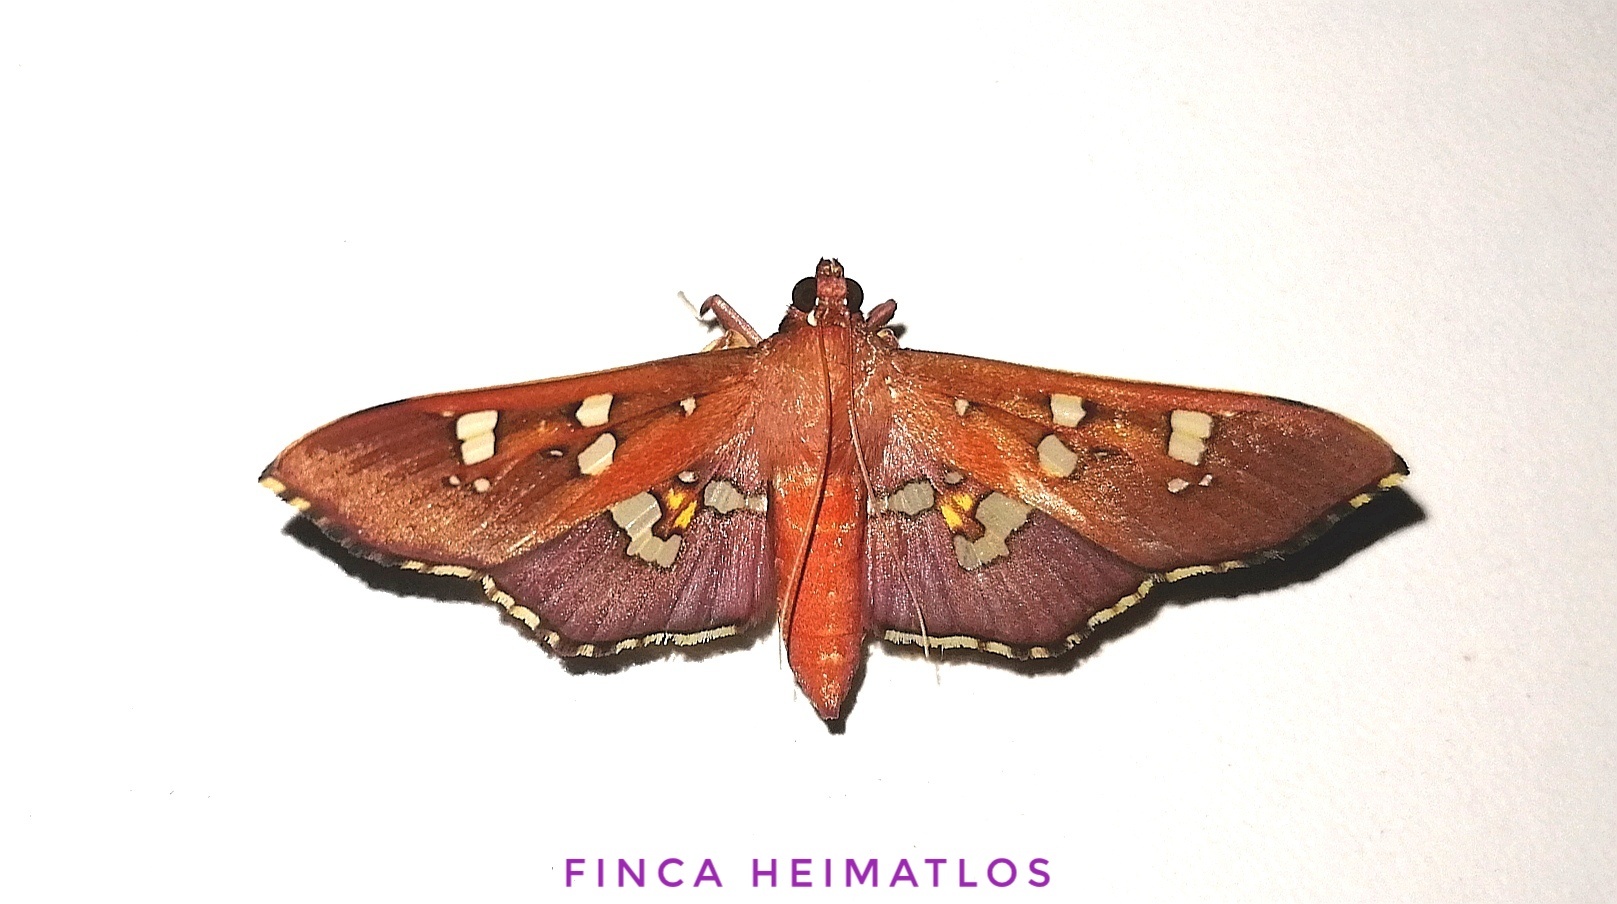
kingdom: Animalia
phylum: Arthropoda
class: Insecta
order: Lepidoptera
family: Crambidae
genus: Phostria
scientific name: Phostria temira
